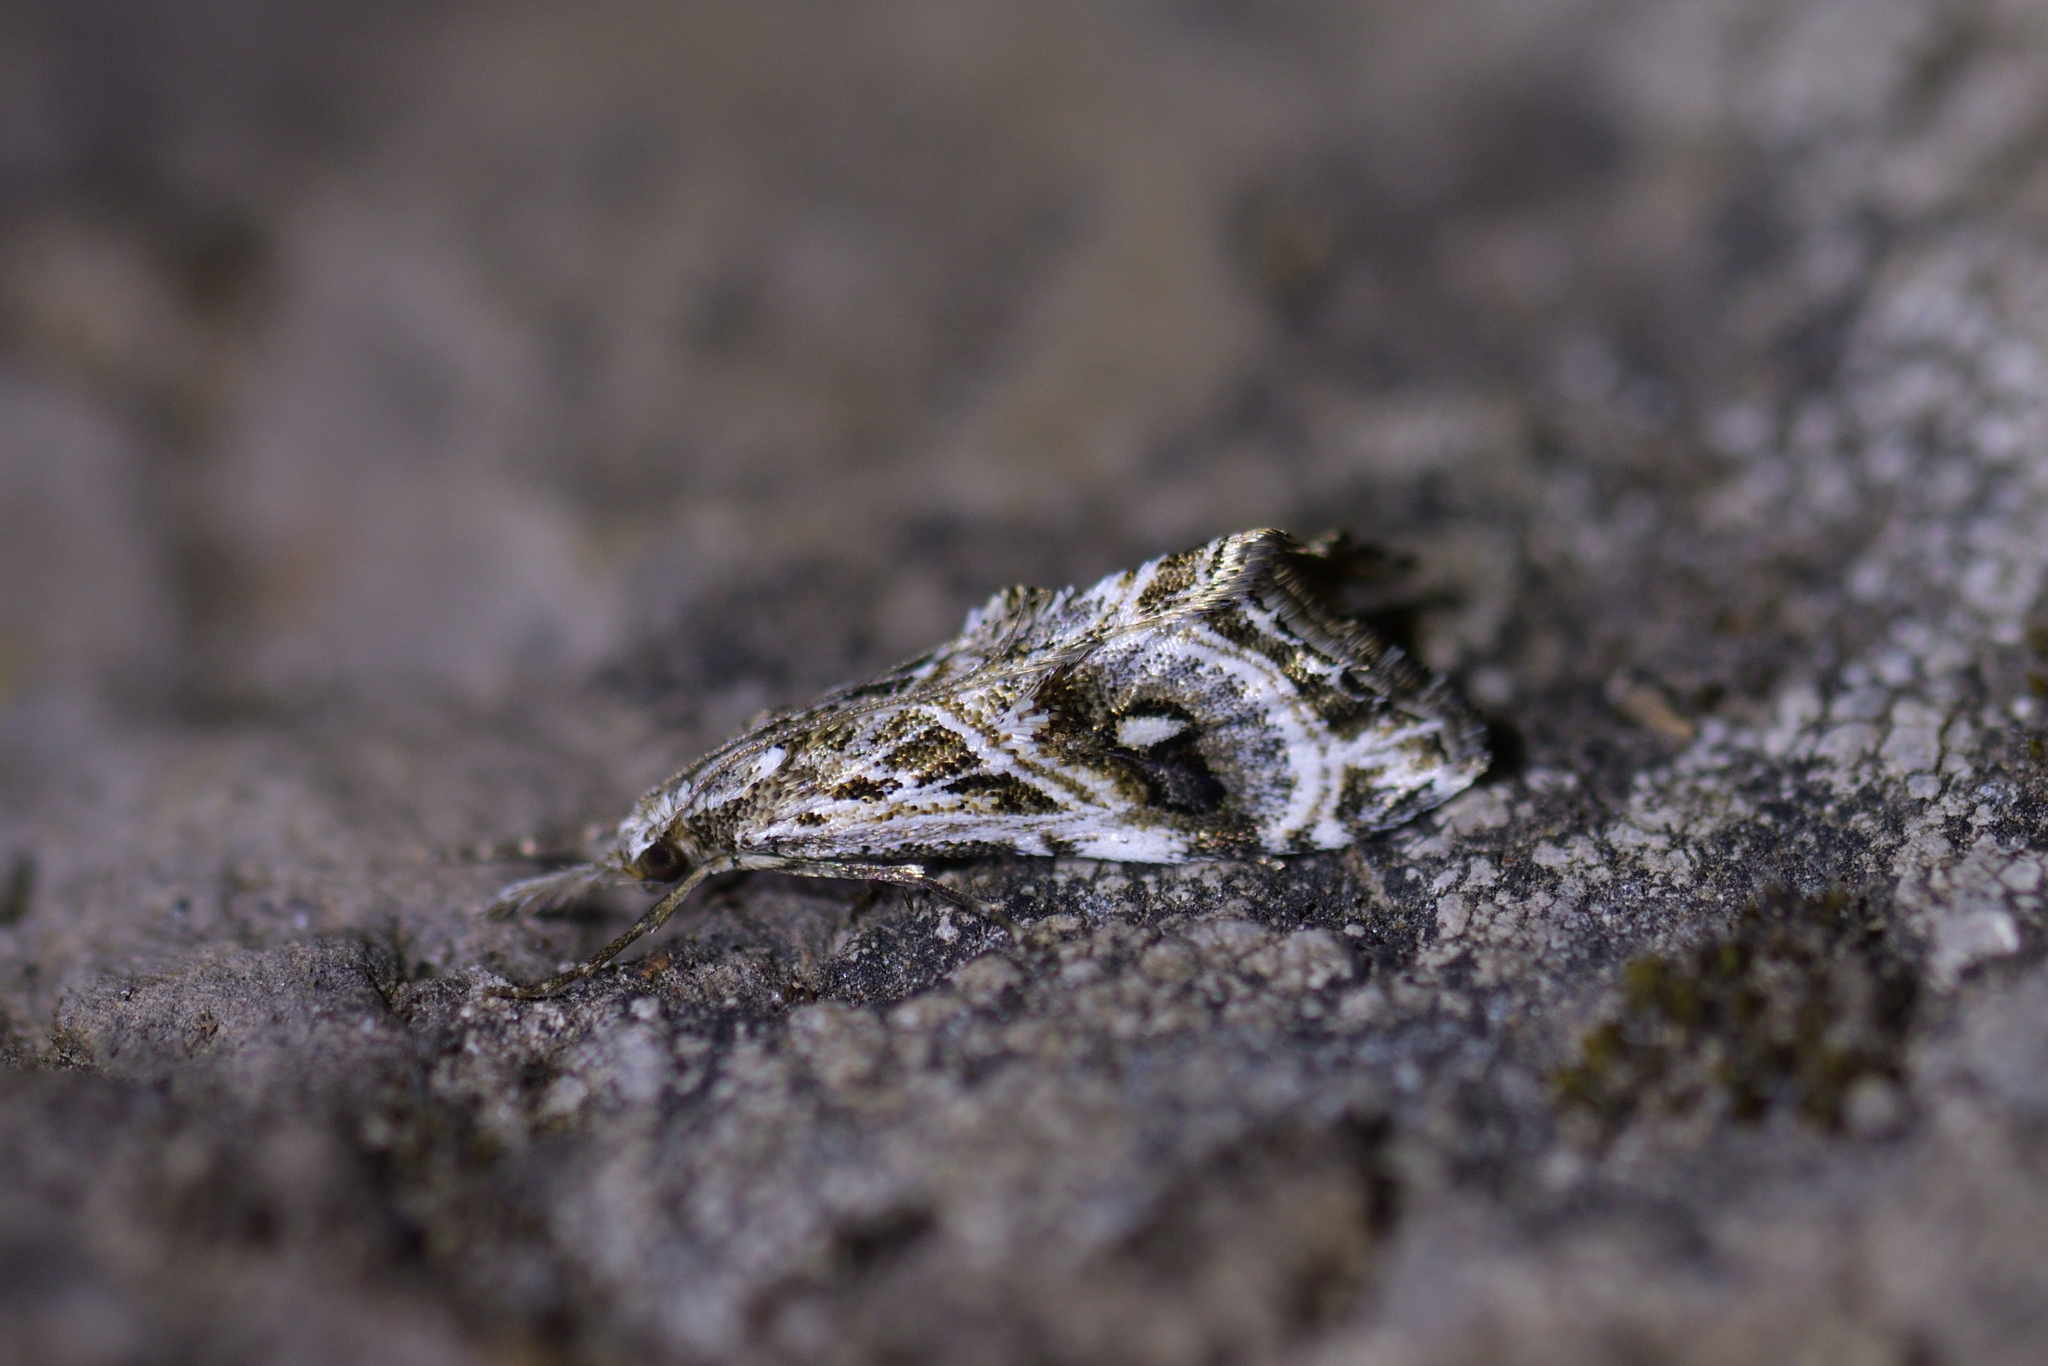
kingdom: Animalia
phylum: Arthropoda
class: Insecta
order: Lepidoptera
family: Crambidae
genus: Gadira
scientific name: Gadira acerella
